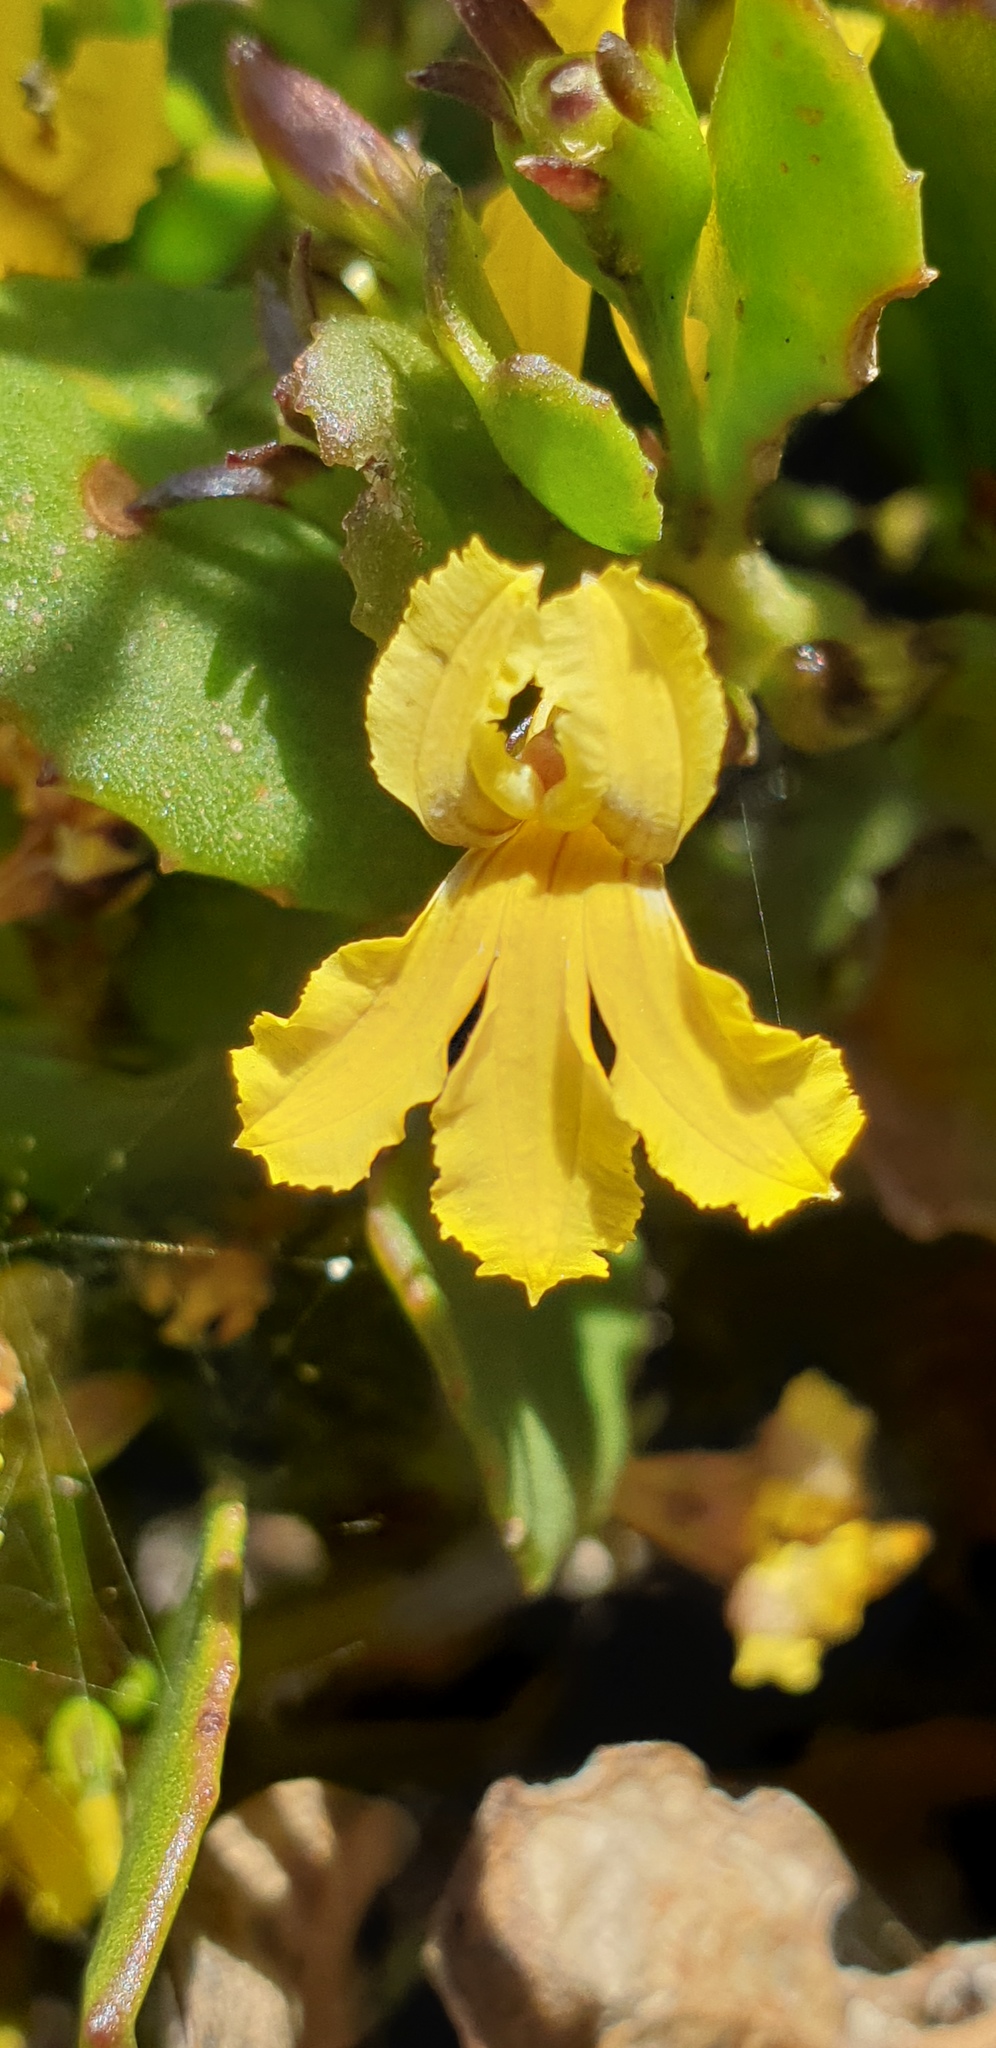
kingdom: Plantae
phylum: Tracheophyta
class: Magnoliopsida
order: Asterales
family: Goodeniaceae
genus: Goodenia
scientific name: Goodenia varia
